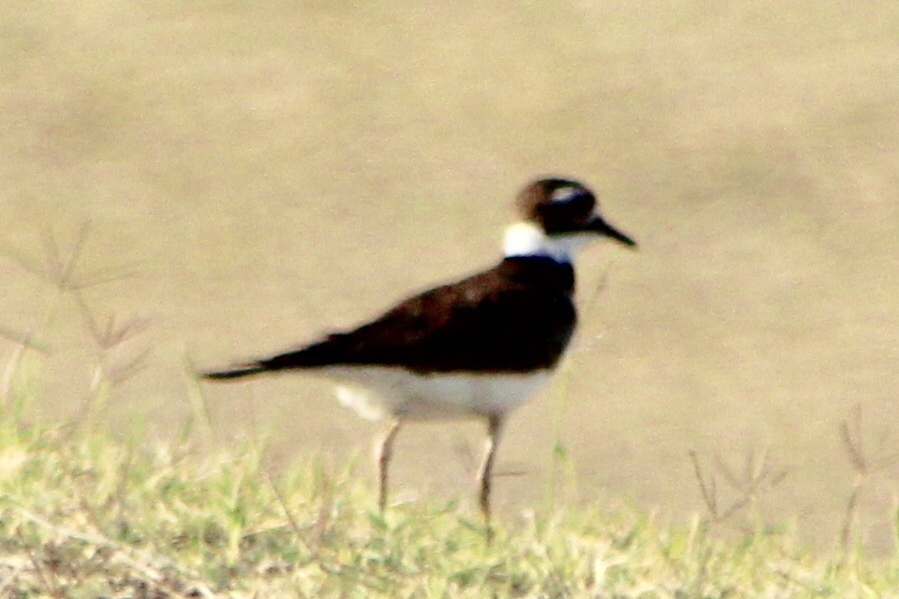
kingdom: Animalia
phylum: Chordata
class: Aves
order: Charadriiformes
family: Charadriidae
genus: Charadrius
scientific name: Charadrius vociferus
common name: Killdeer
